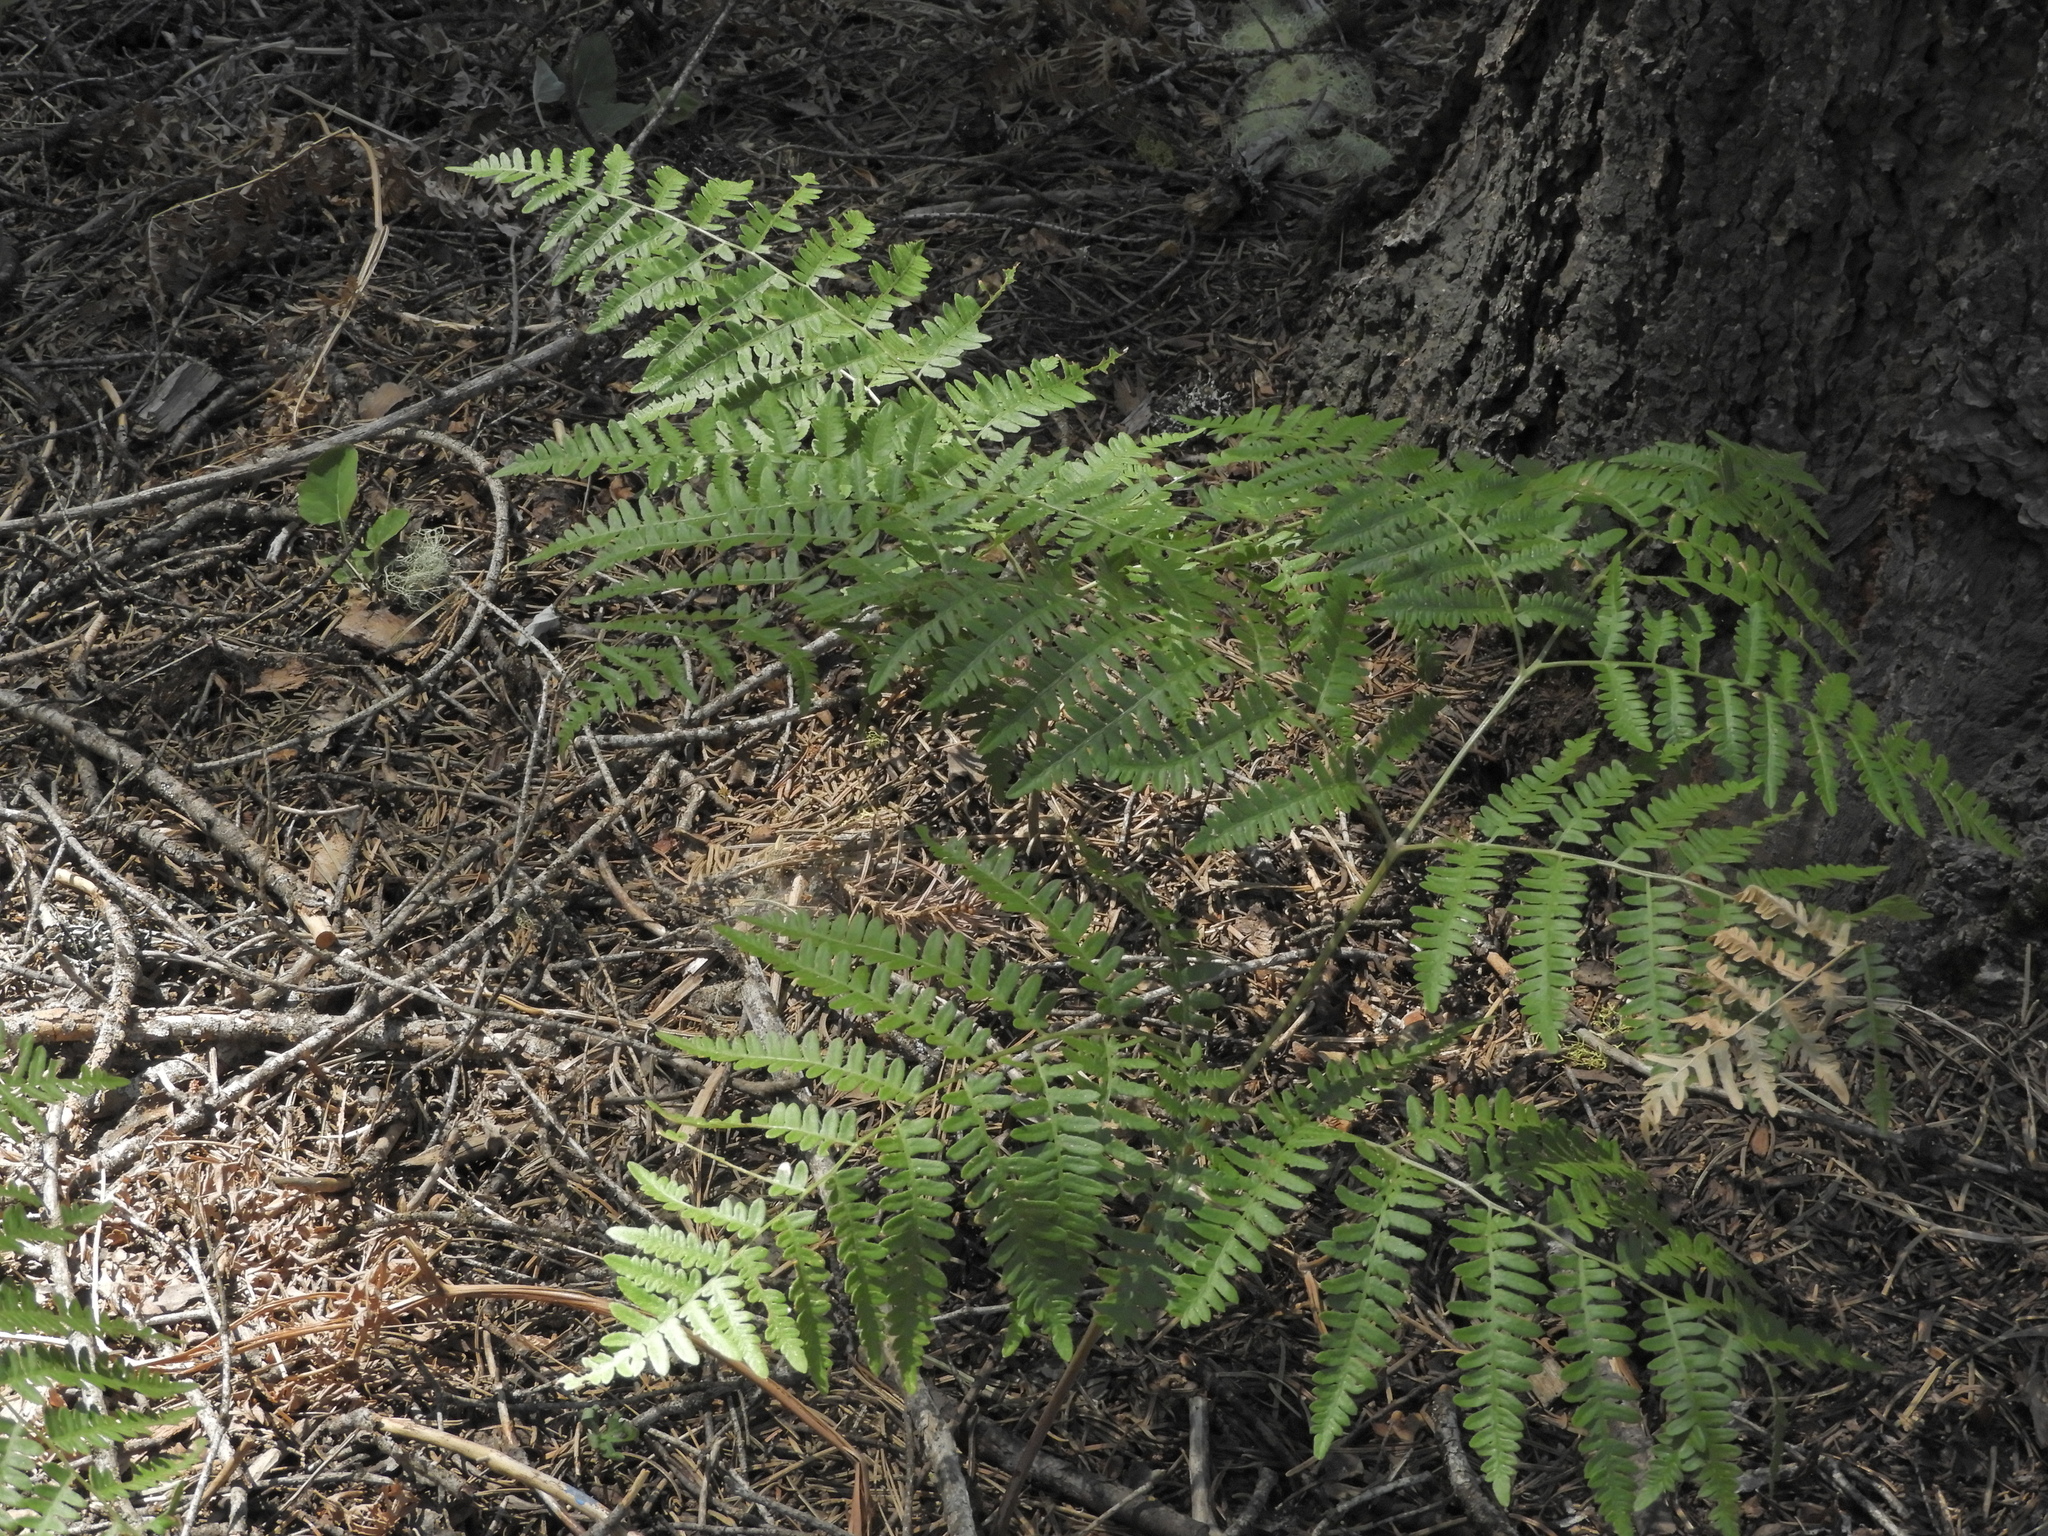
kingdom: Plantae
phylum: Tracheophyta
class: Polypodiopsida
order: Polypodiales
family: Dennstaedtiaceae
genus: Pteridium
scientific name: Pteridium aquilinum
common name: Bracken
